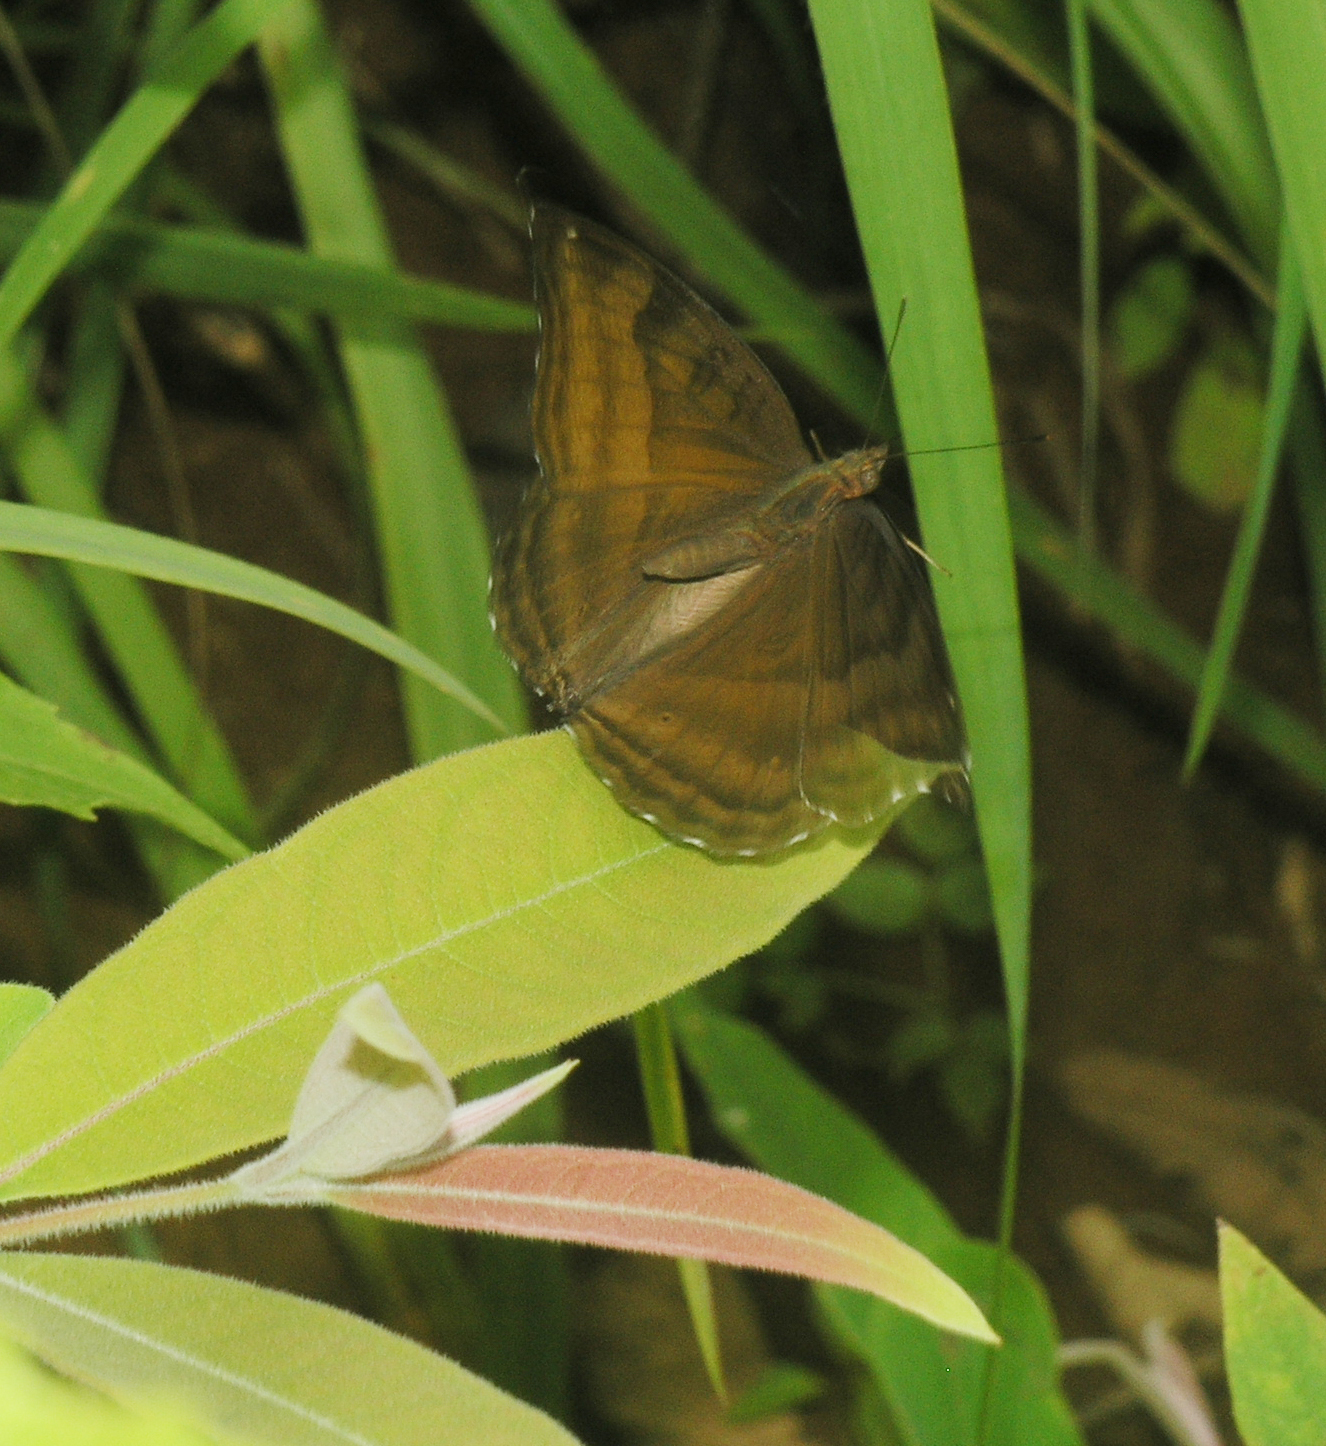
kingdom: Animalia
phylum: Arthropoda
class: Insecta
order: Lepidoptera
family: Nymphalidae
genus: Junonia
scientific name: Junonia iphita
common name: Chocolate pansy
